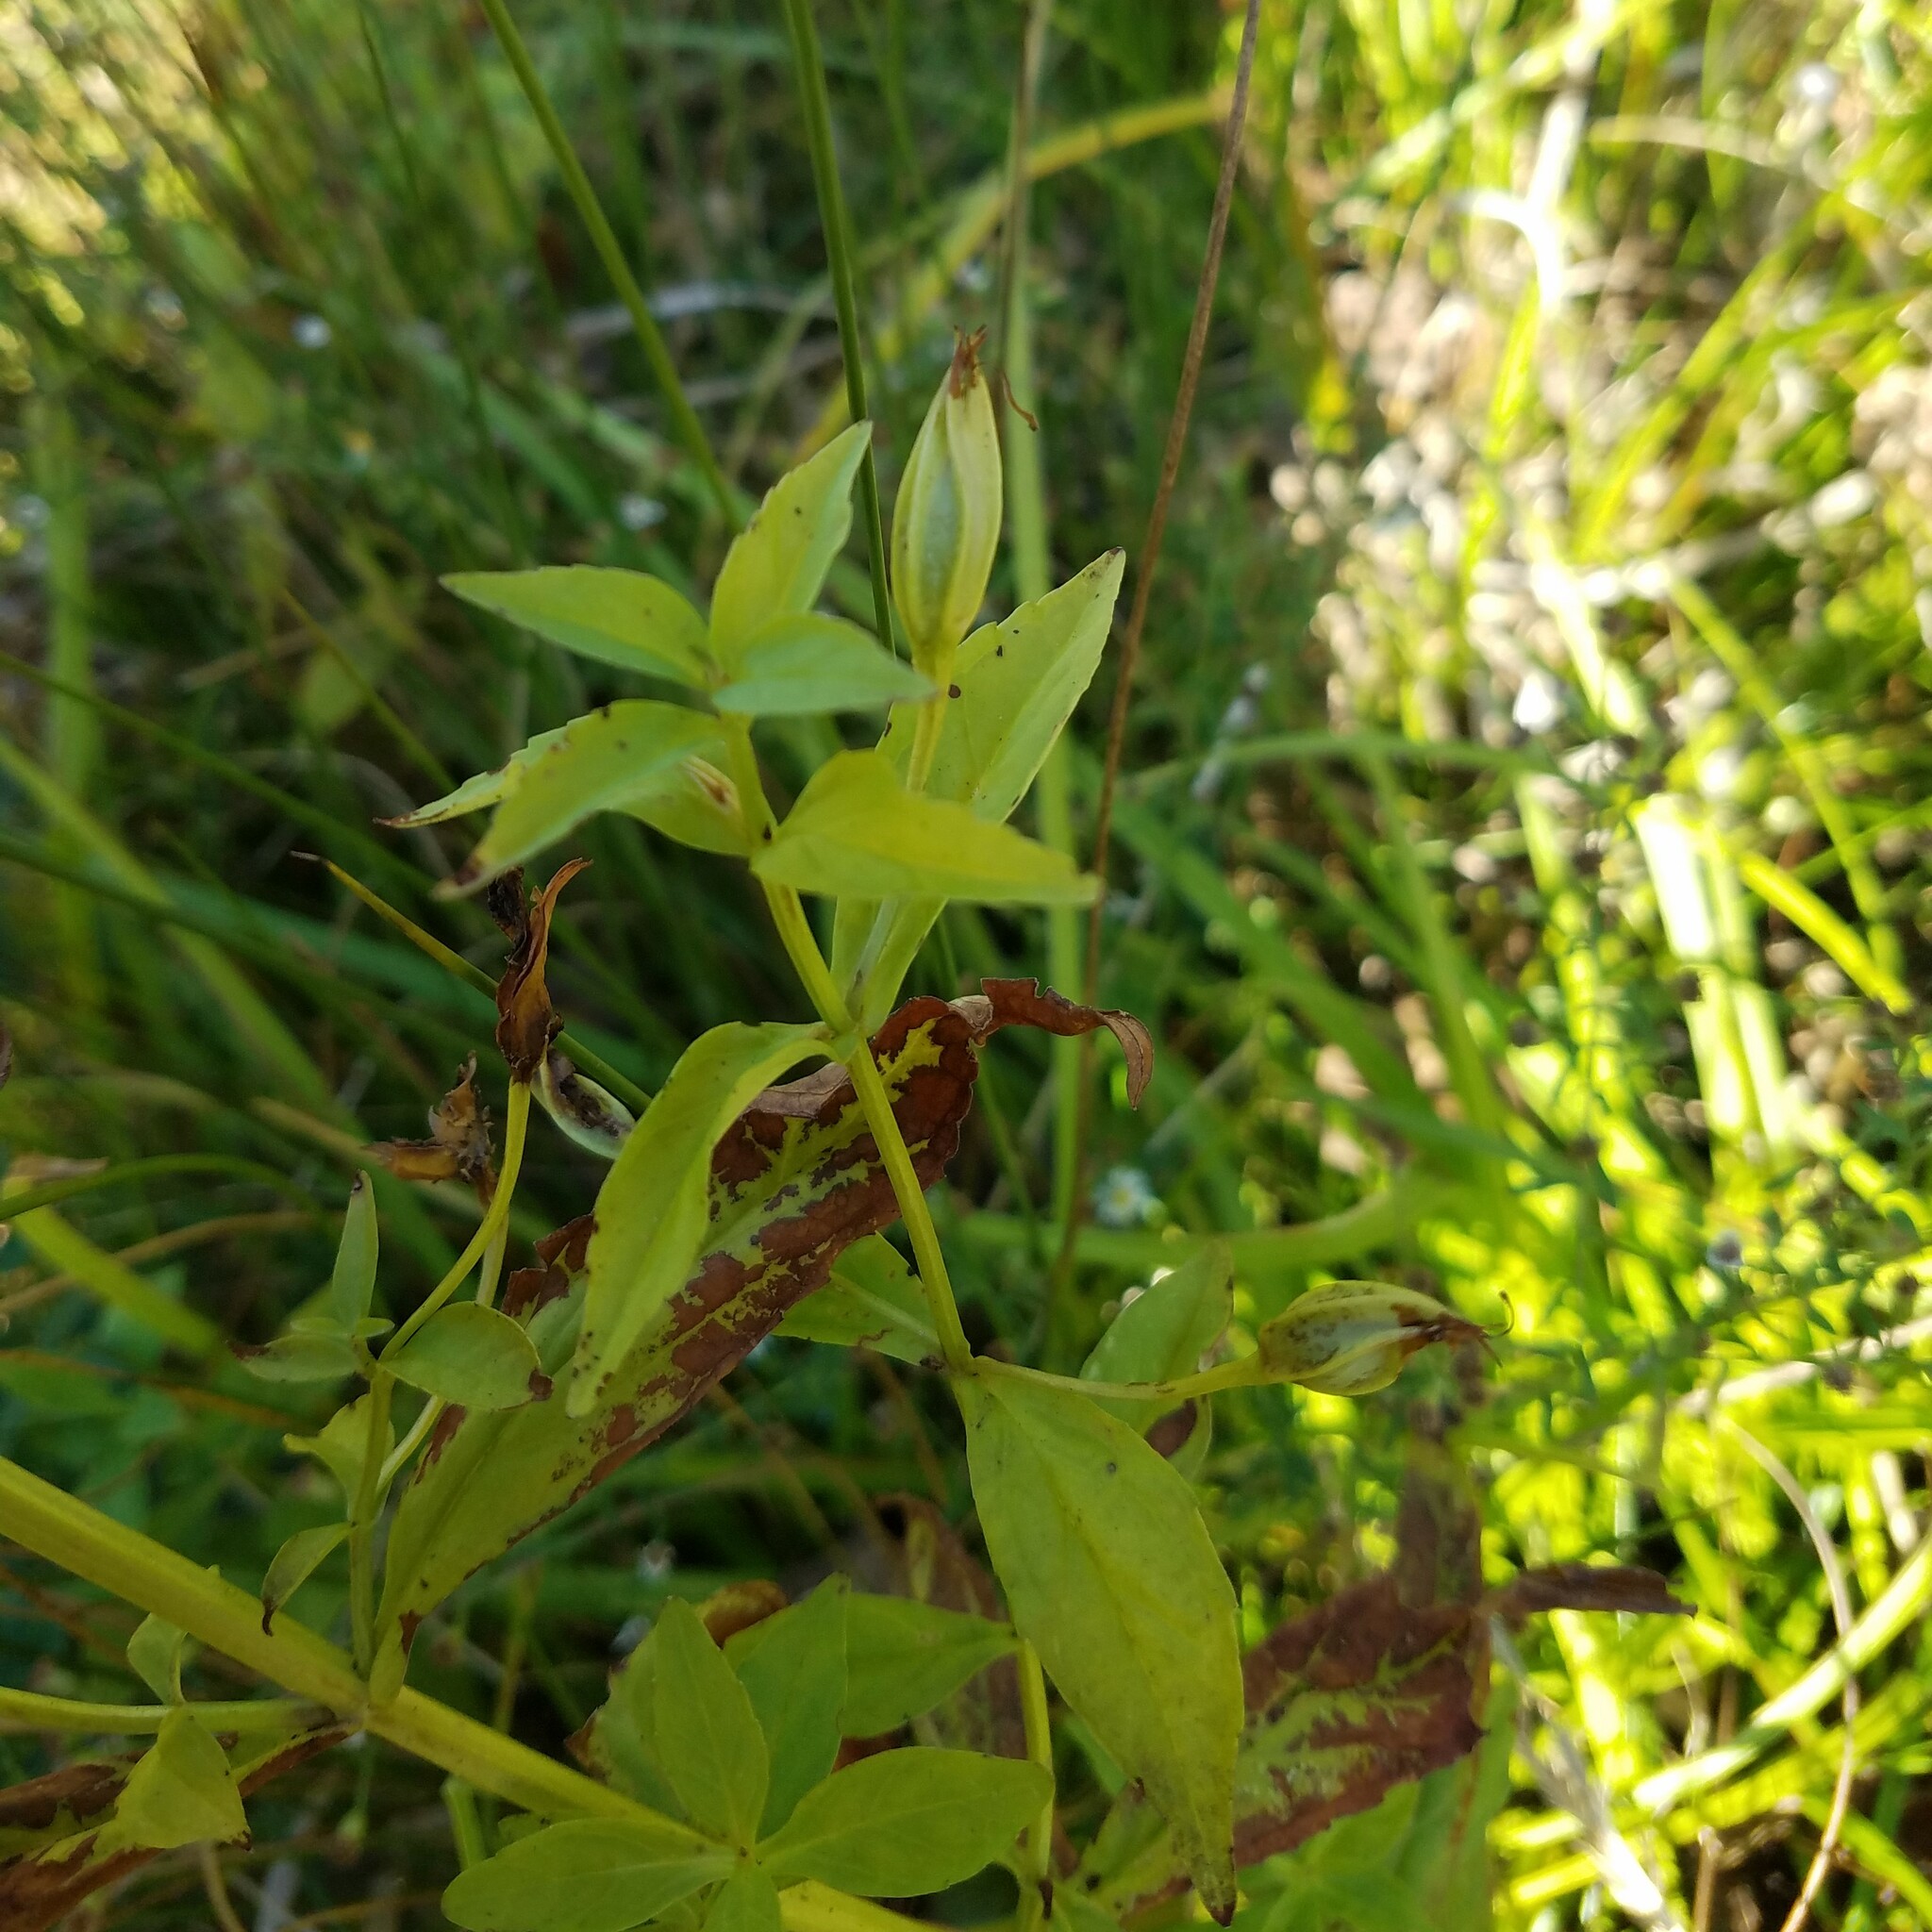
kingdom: Plantae
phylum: Tracheophyta
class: Magnoliopsida
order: Lamiales
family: Phrymaceae
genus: Mimulus
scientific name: Mimulus ringens
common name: Allegheny monkeyflower
